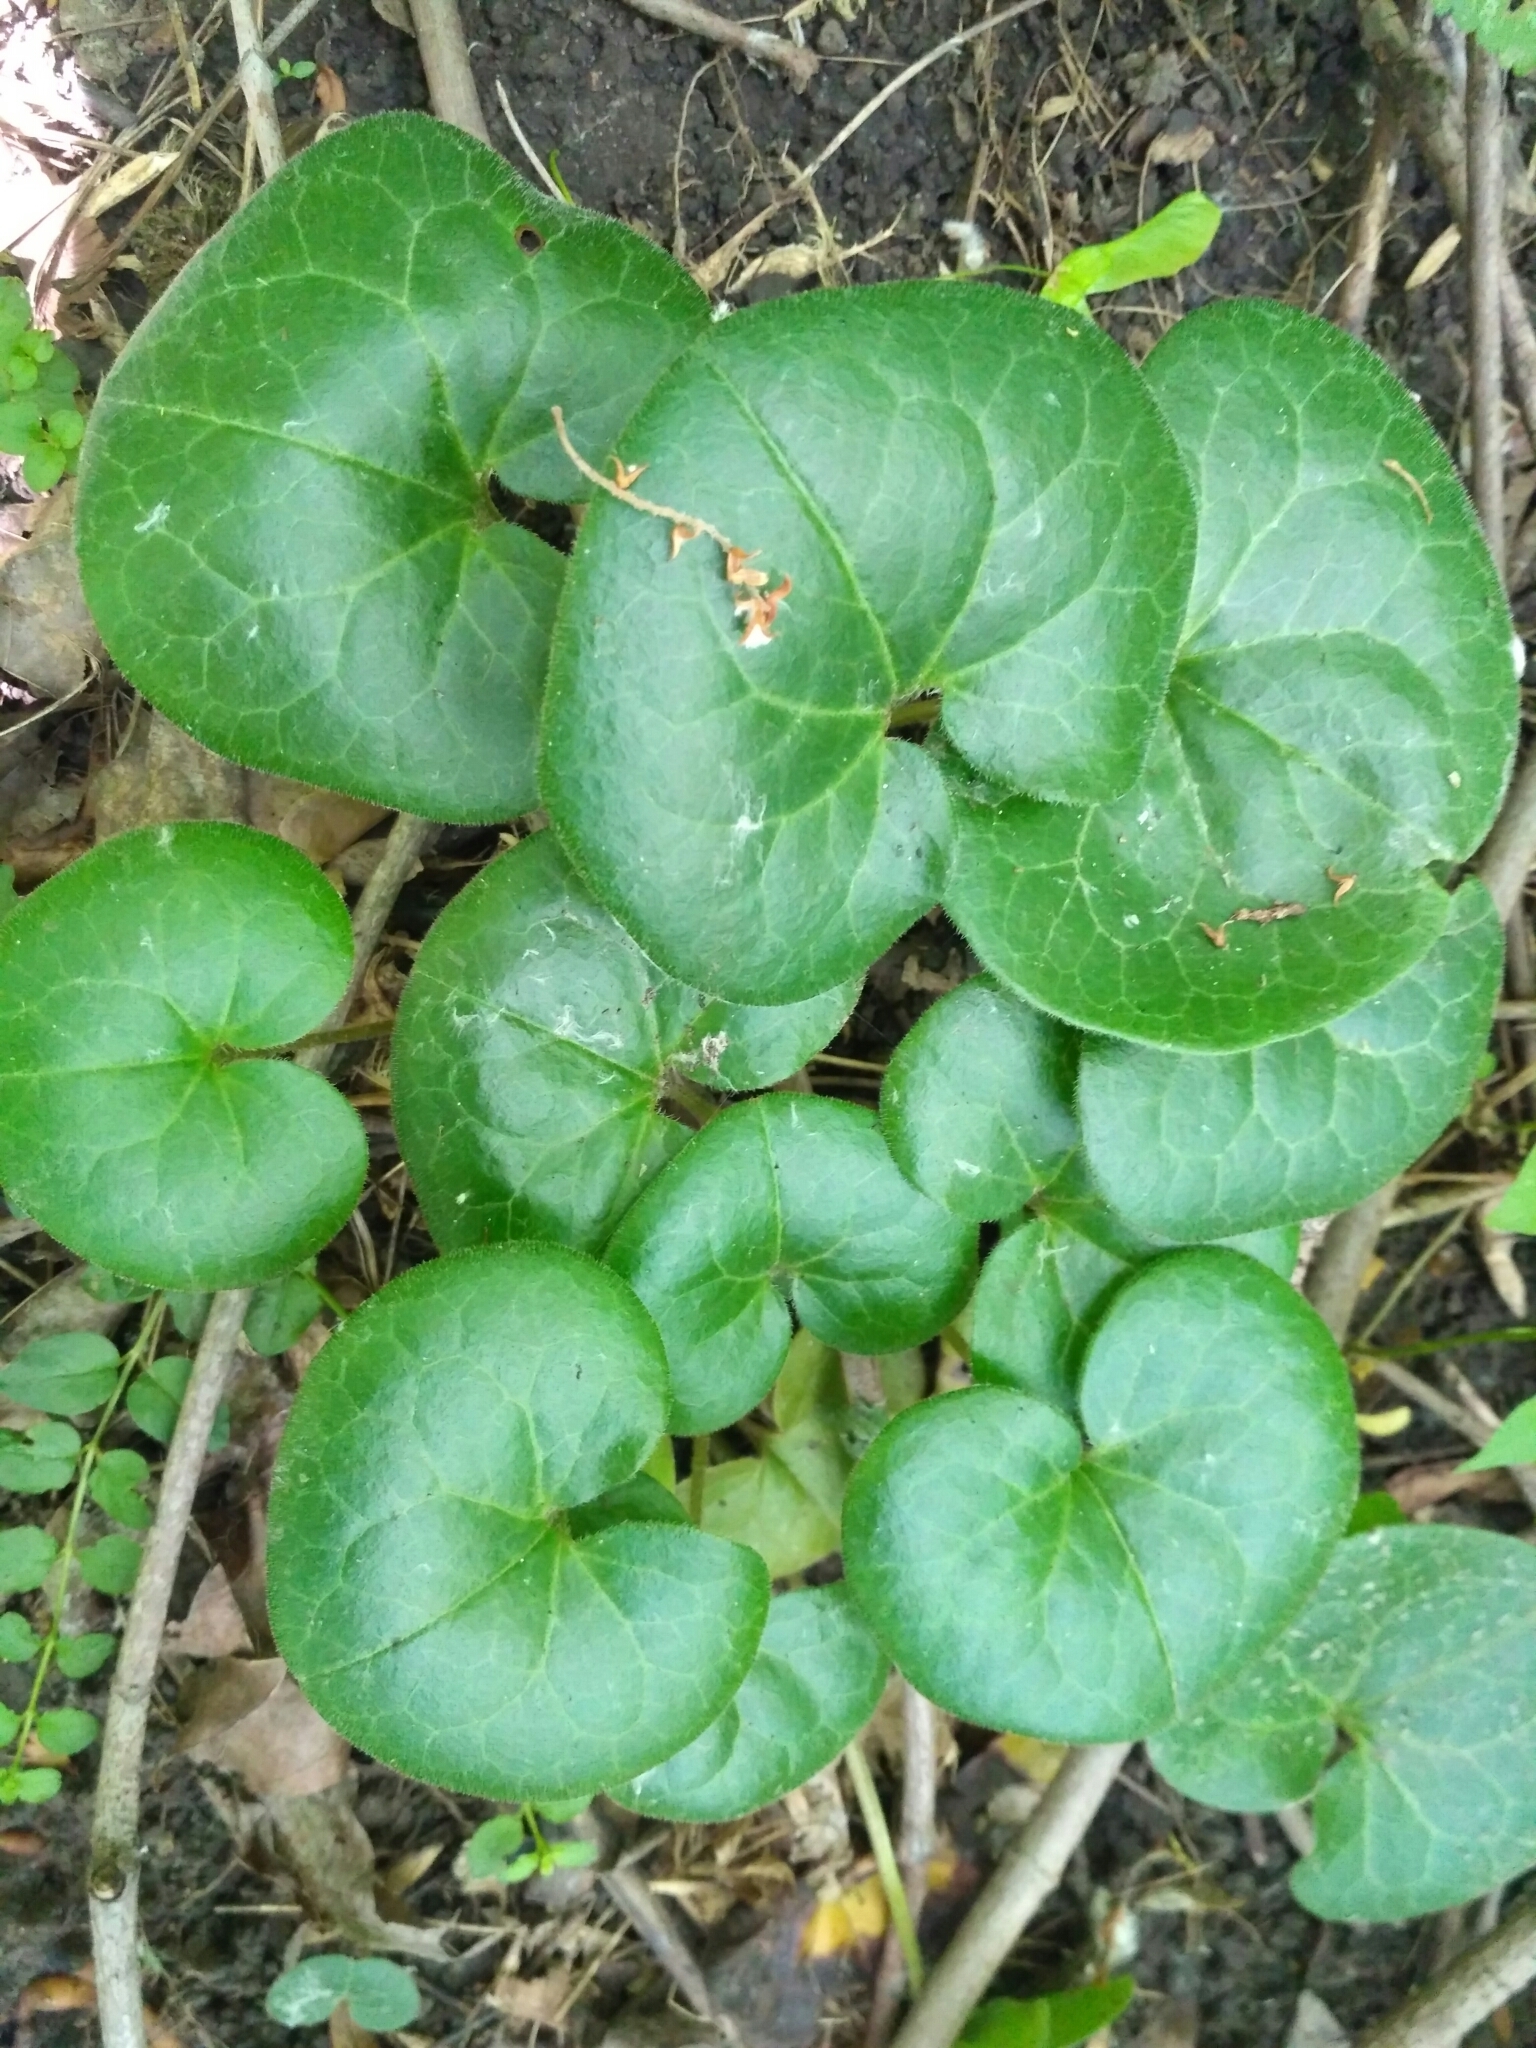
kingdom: Plantae
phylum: Tracheophyta
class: Magnoliopsida
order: Piperales
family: Aristolochiaceae
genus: Asarum
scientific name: Asarum europaeum
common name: Asarabacca
